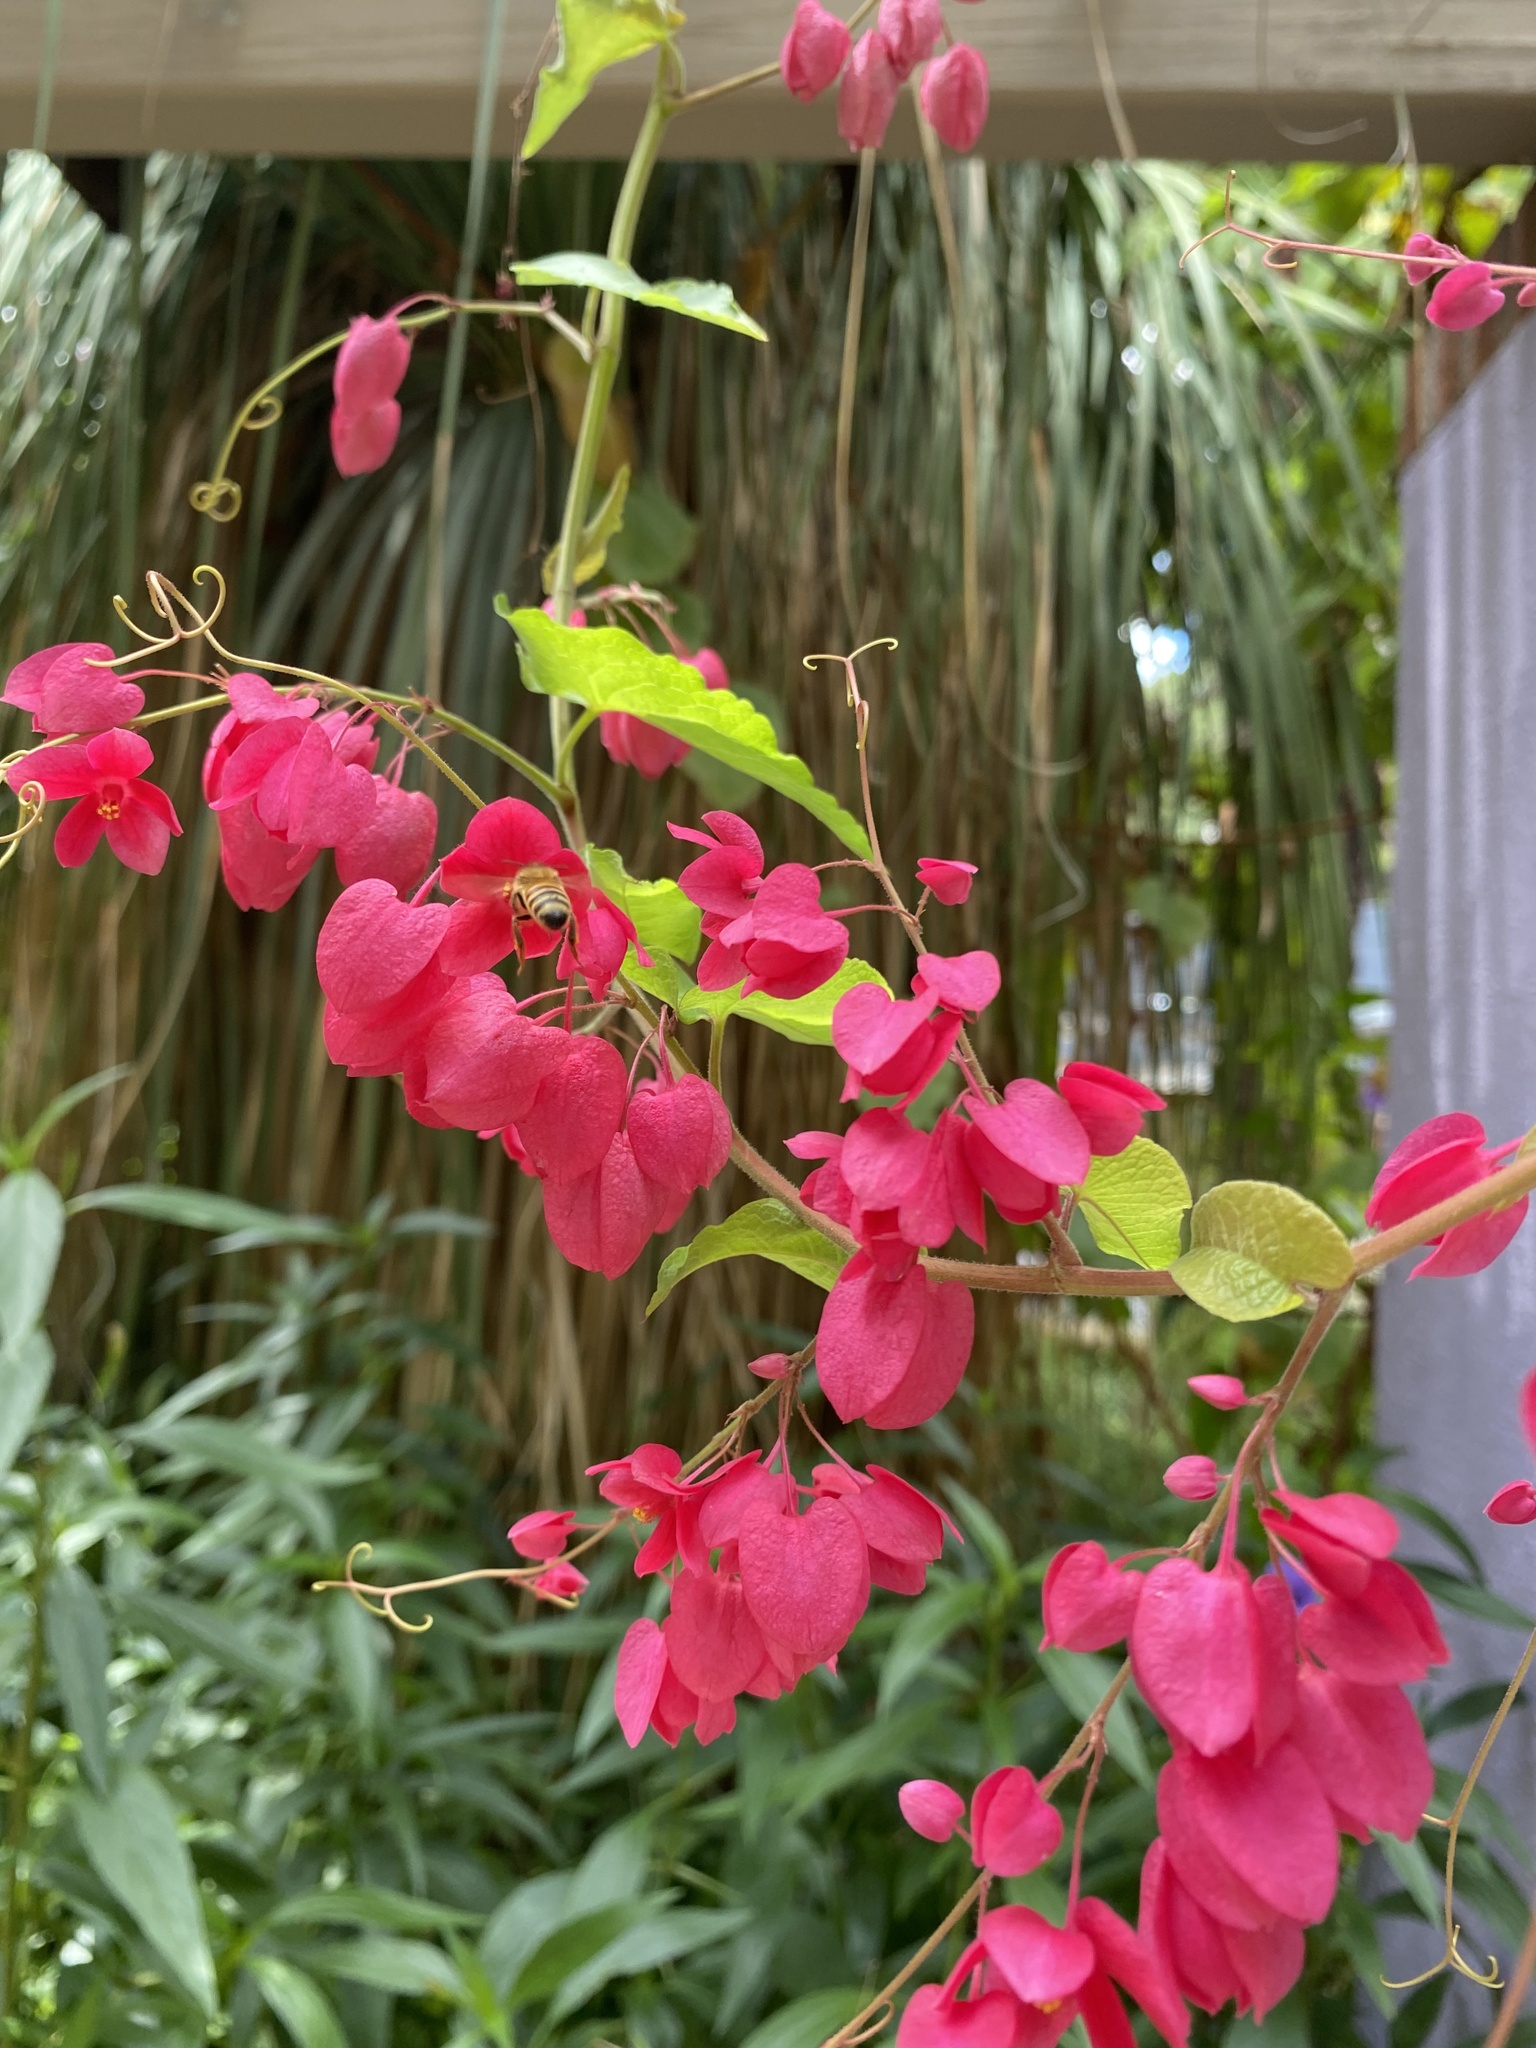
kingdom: Plantae
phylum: Tracheophyta
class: Magnoliopsida
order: Caryophyllales
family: Polygonaceae
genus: Antigonon
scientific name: Antigonon leptopus
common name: Coral vine
